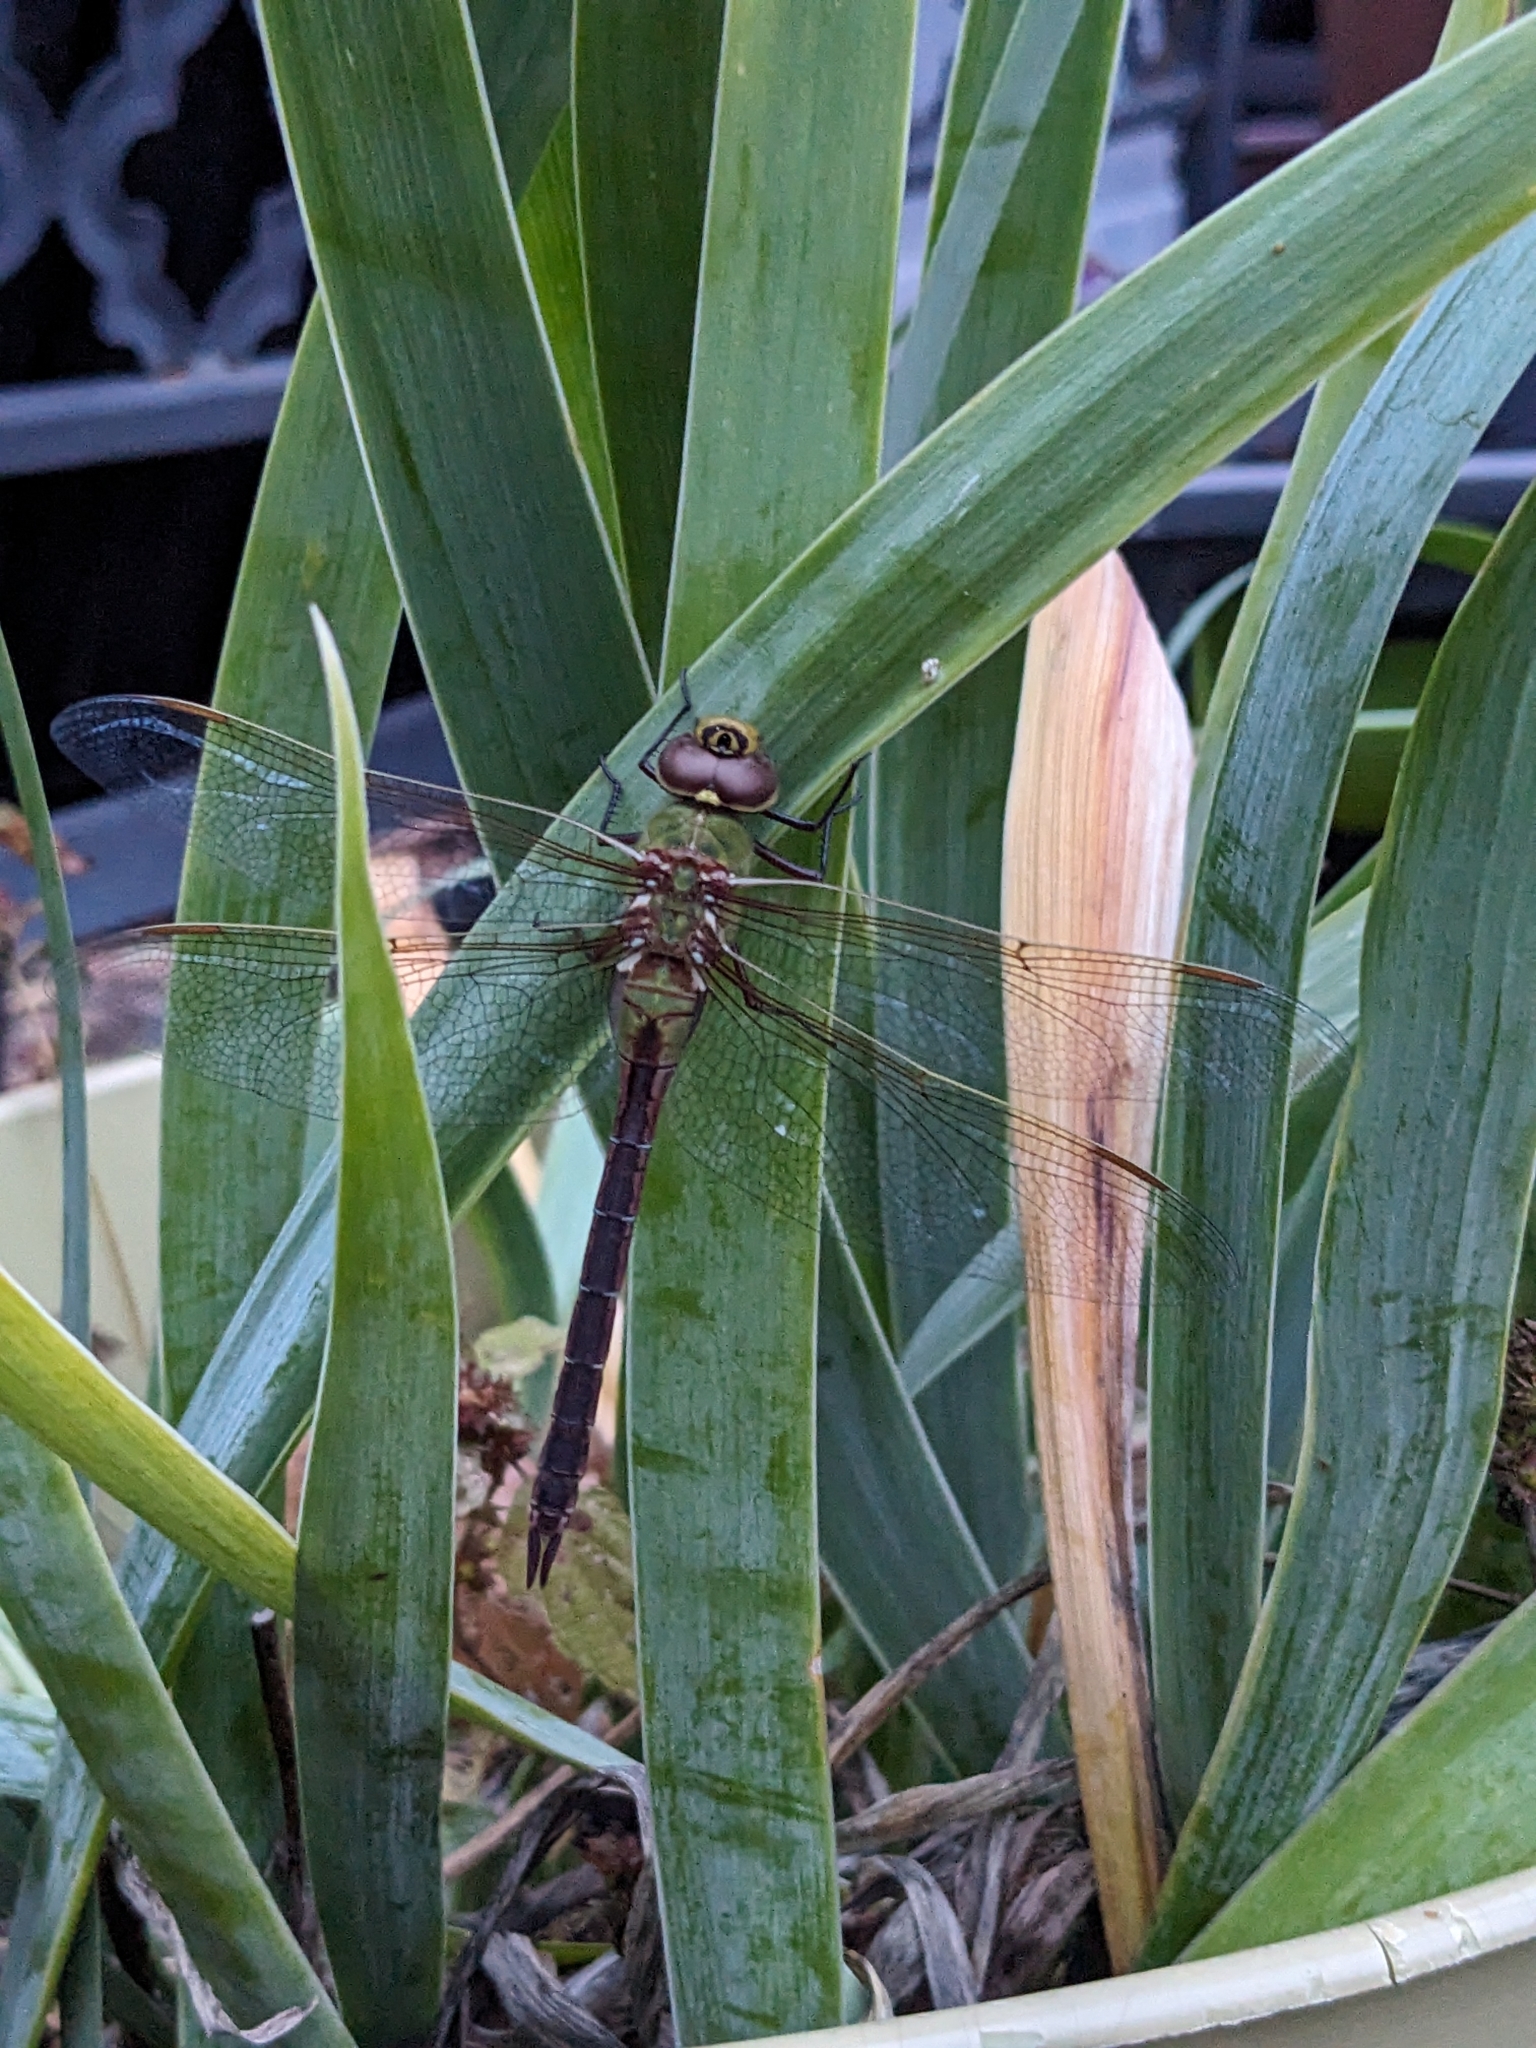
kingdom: Animalia
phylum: Arthropoda
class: Insecta
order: Odonata
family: Aeshnidae
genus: Anax
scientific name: Anax junius
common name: Common green darner
